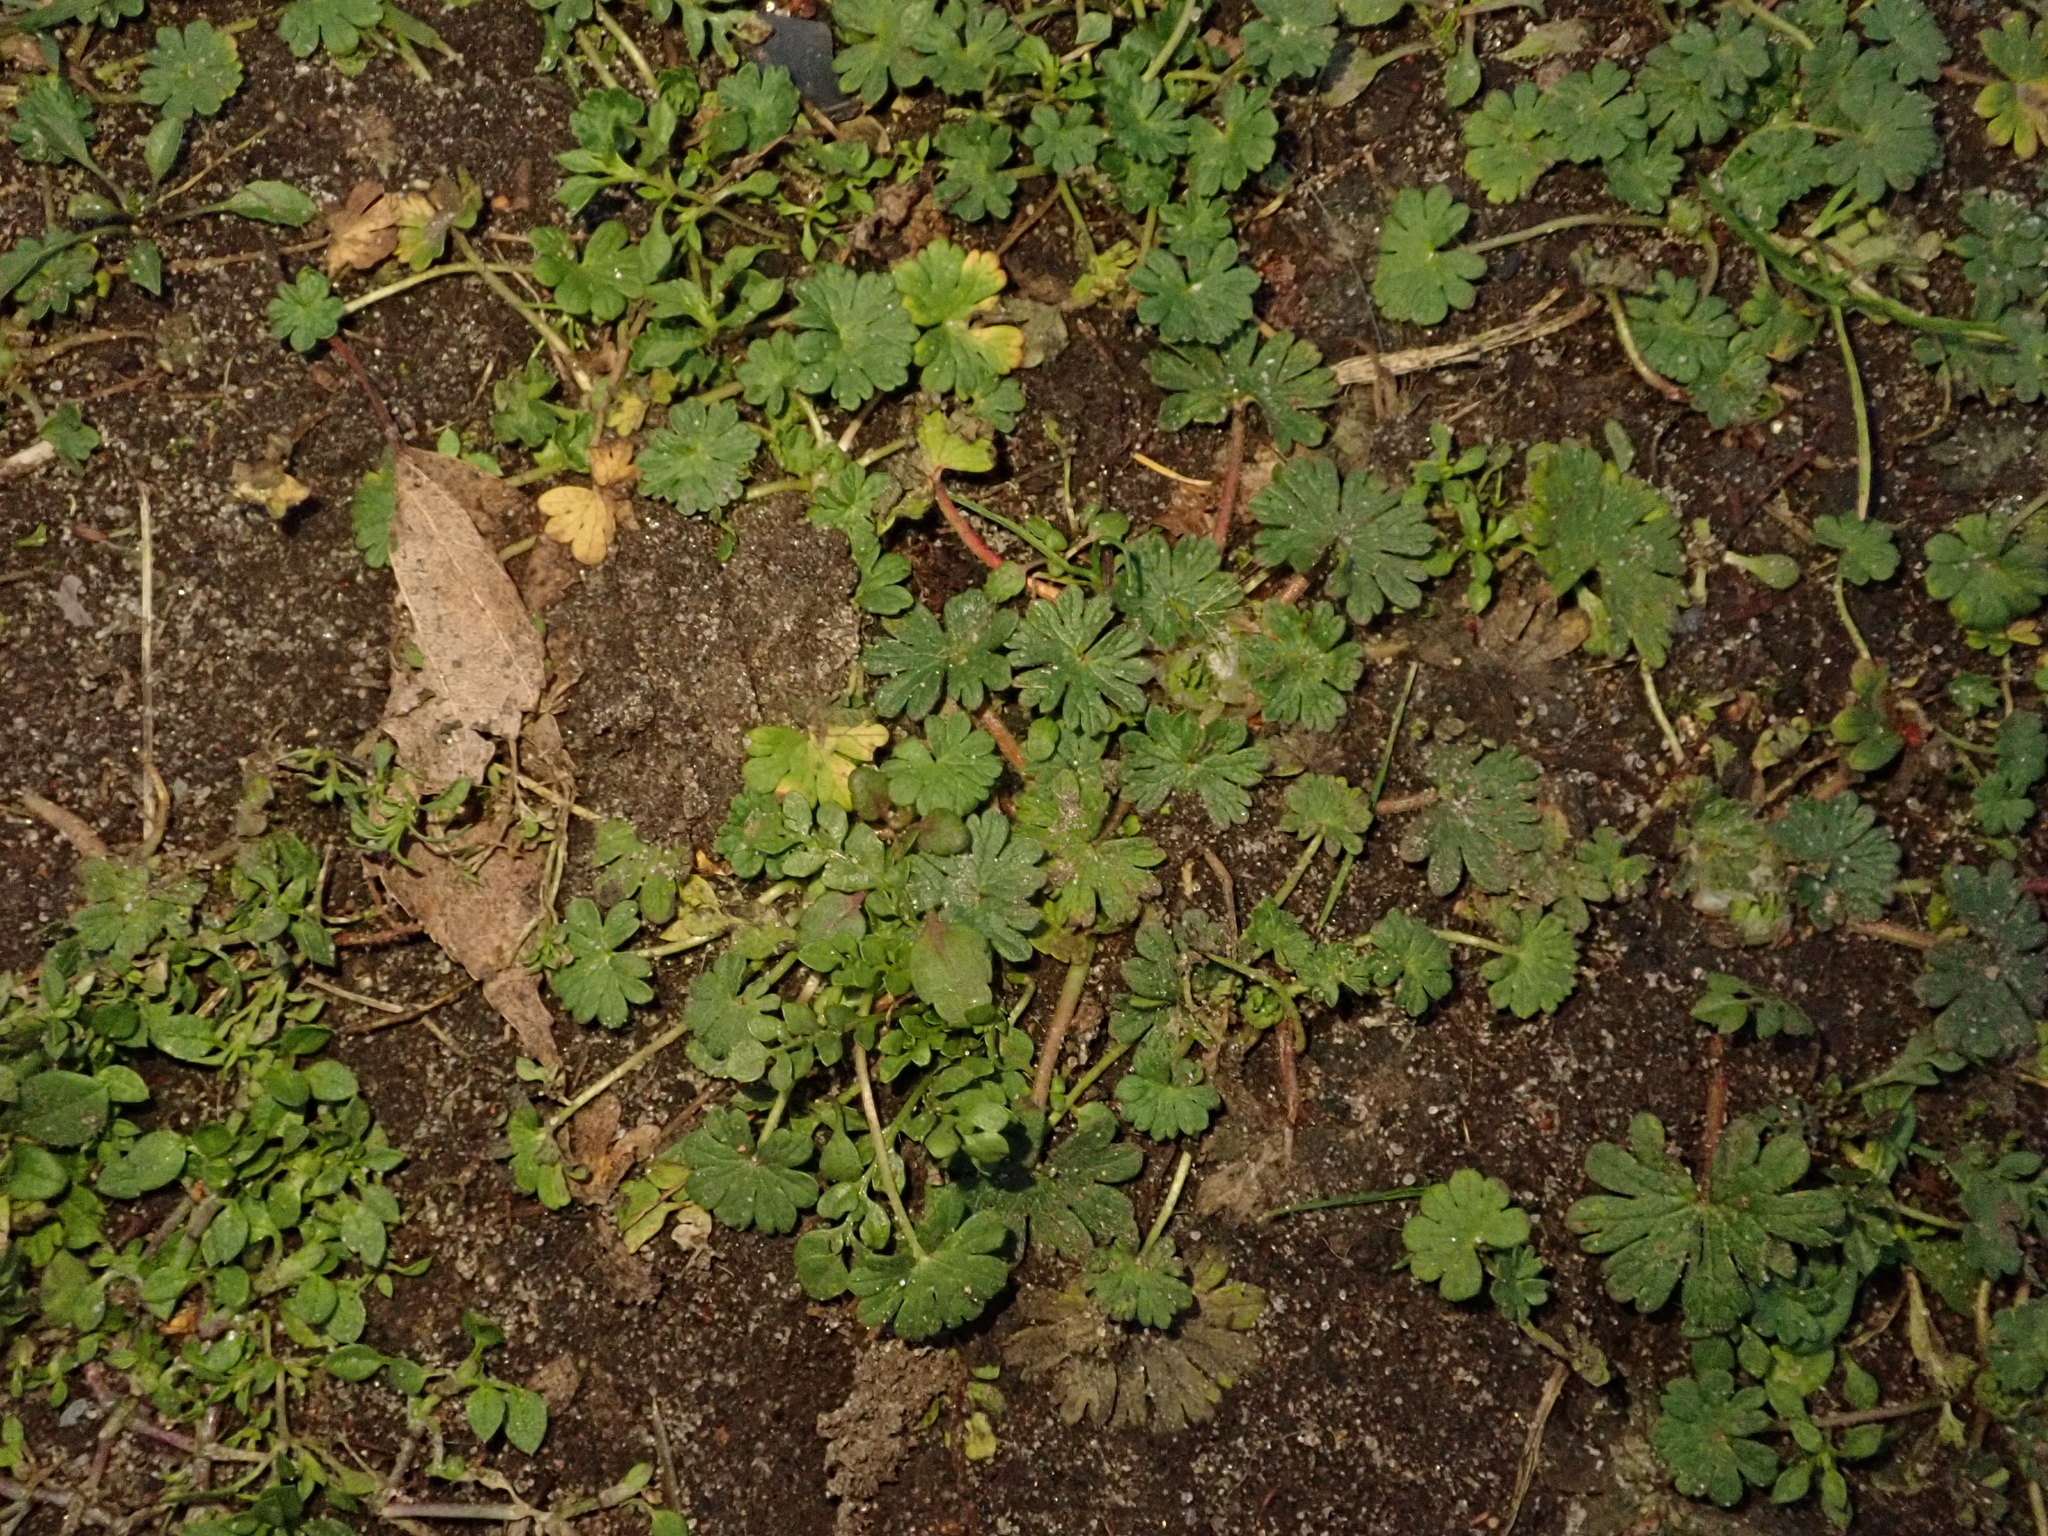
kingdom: Plantae
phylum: Tracheophyta
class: Magnoliopsida
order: Geraniales
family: Geraniaceae
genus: Geranium
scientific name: Geranium molle
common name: Dove's-foot crane's-bill
